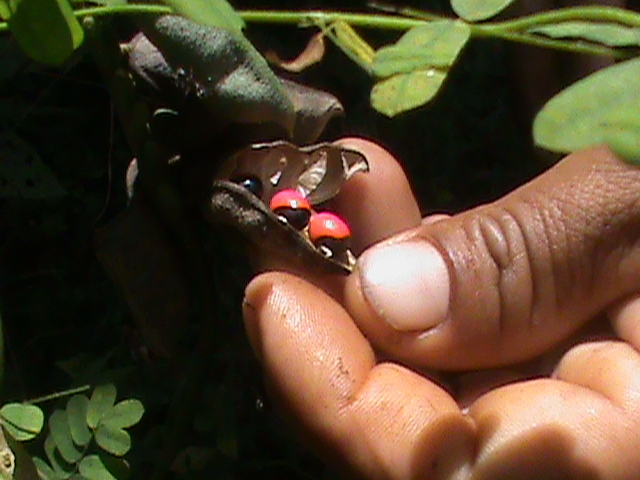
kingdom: Plantae
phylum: Tracheophyta
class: Magnoliopsida
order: Fabales
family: Fabaceae
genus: Abrus
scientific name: Abrus precatorius
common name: Rosarypea
